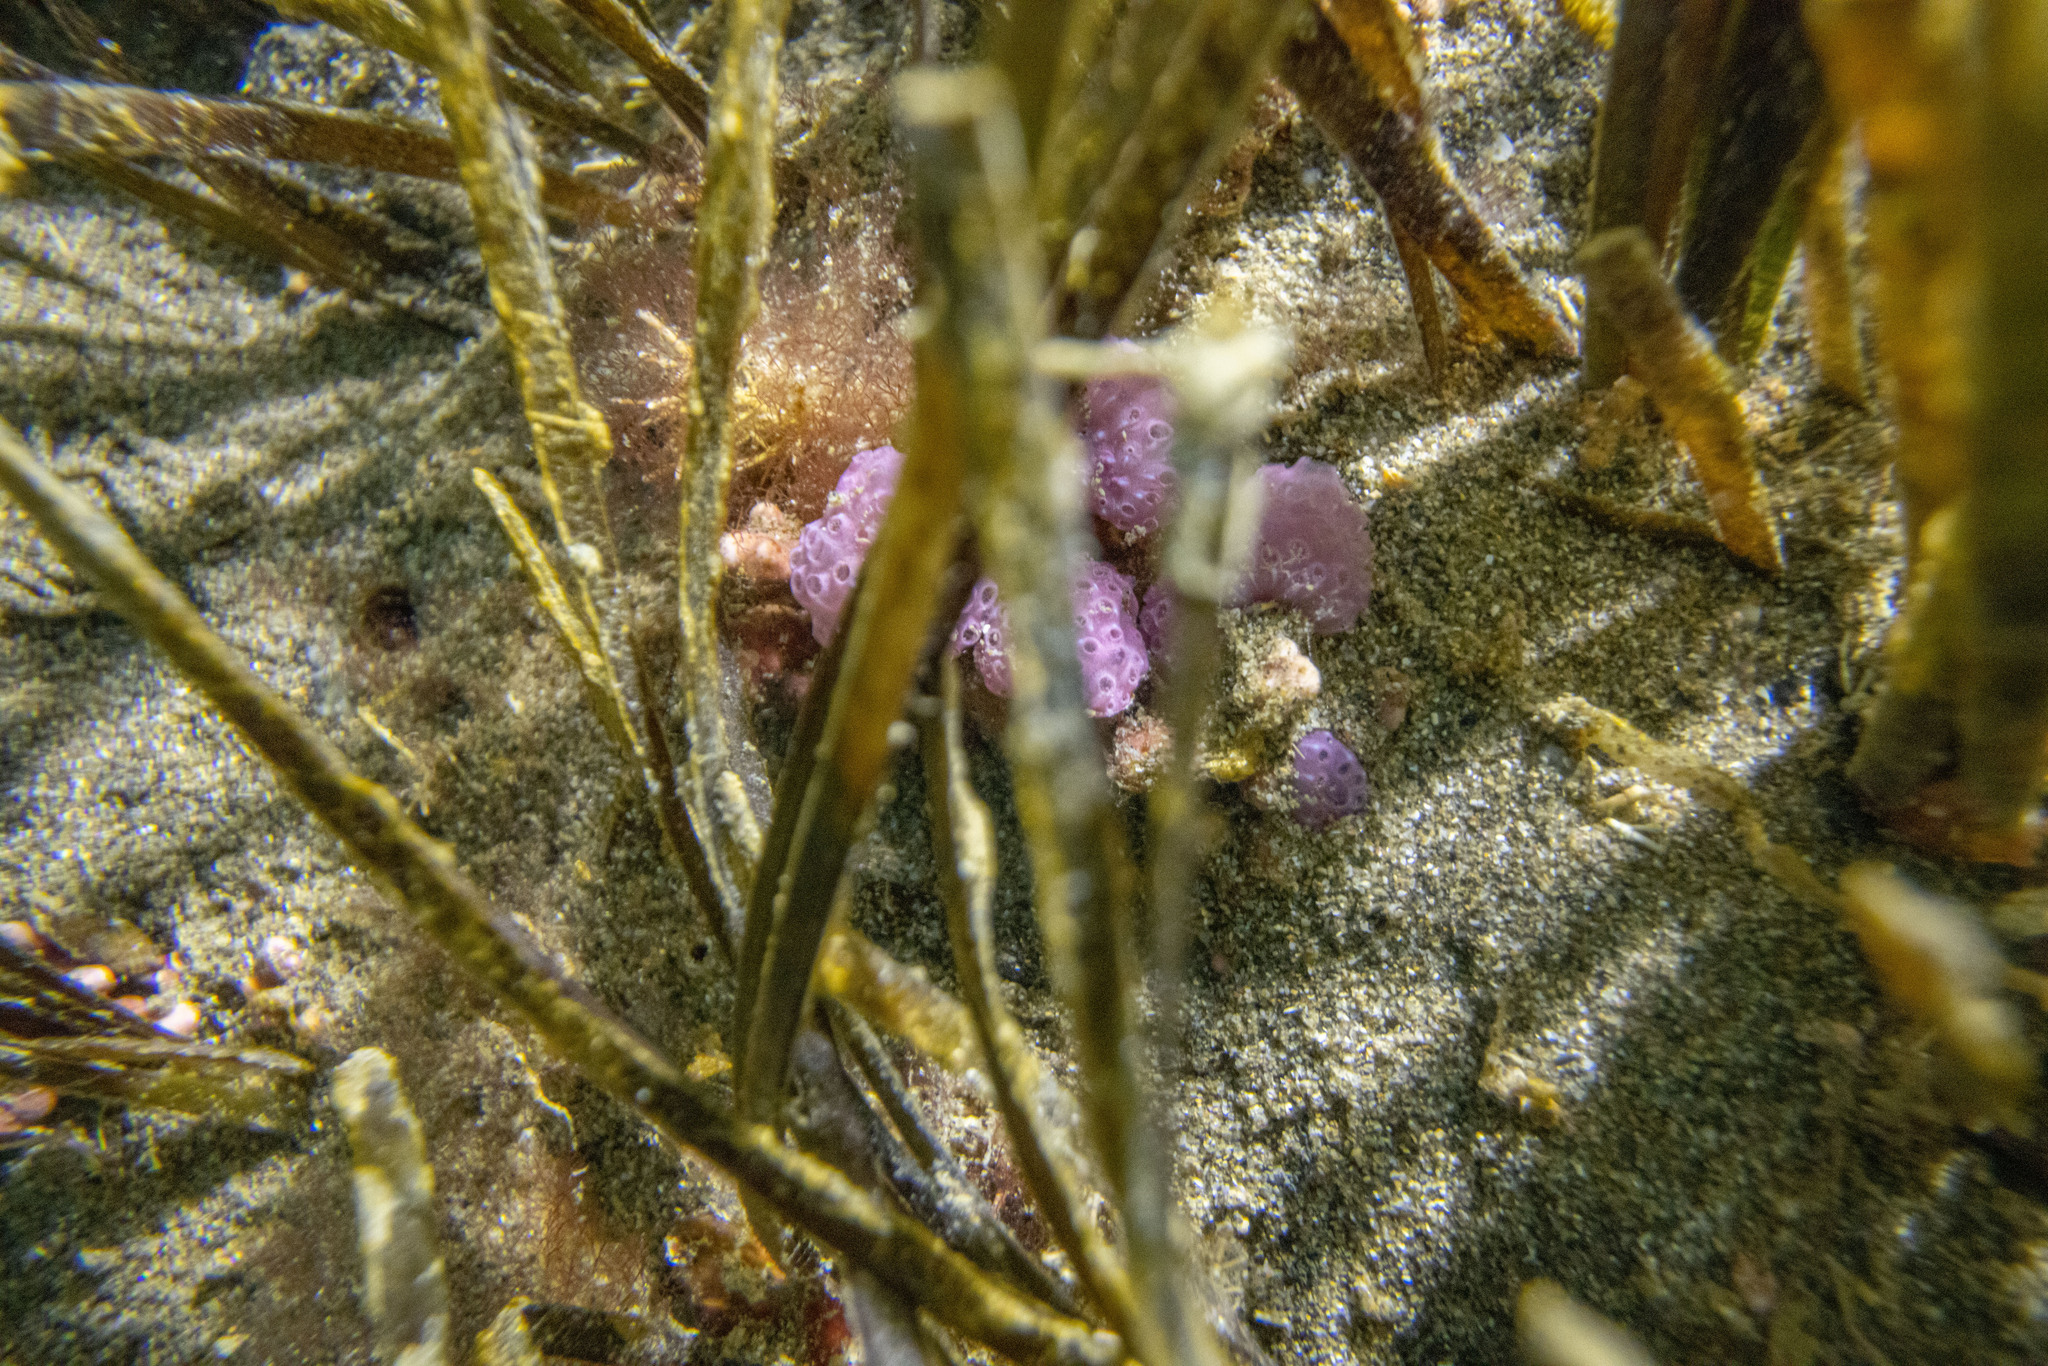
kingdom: Animalia
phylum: Chordata
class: Ascidiacea
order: Aplousobranchia
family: Holozoidae
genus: Hypsistozoa
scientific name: Hypsistozoa fasmeriana
